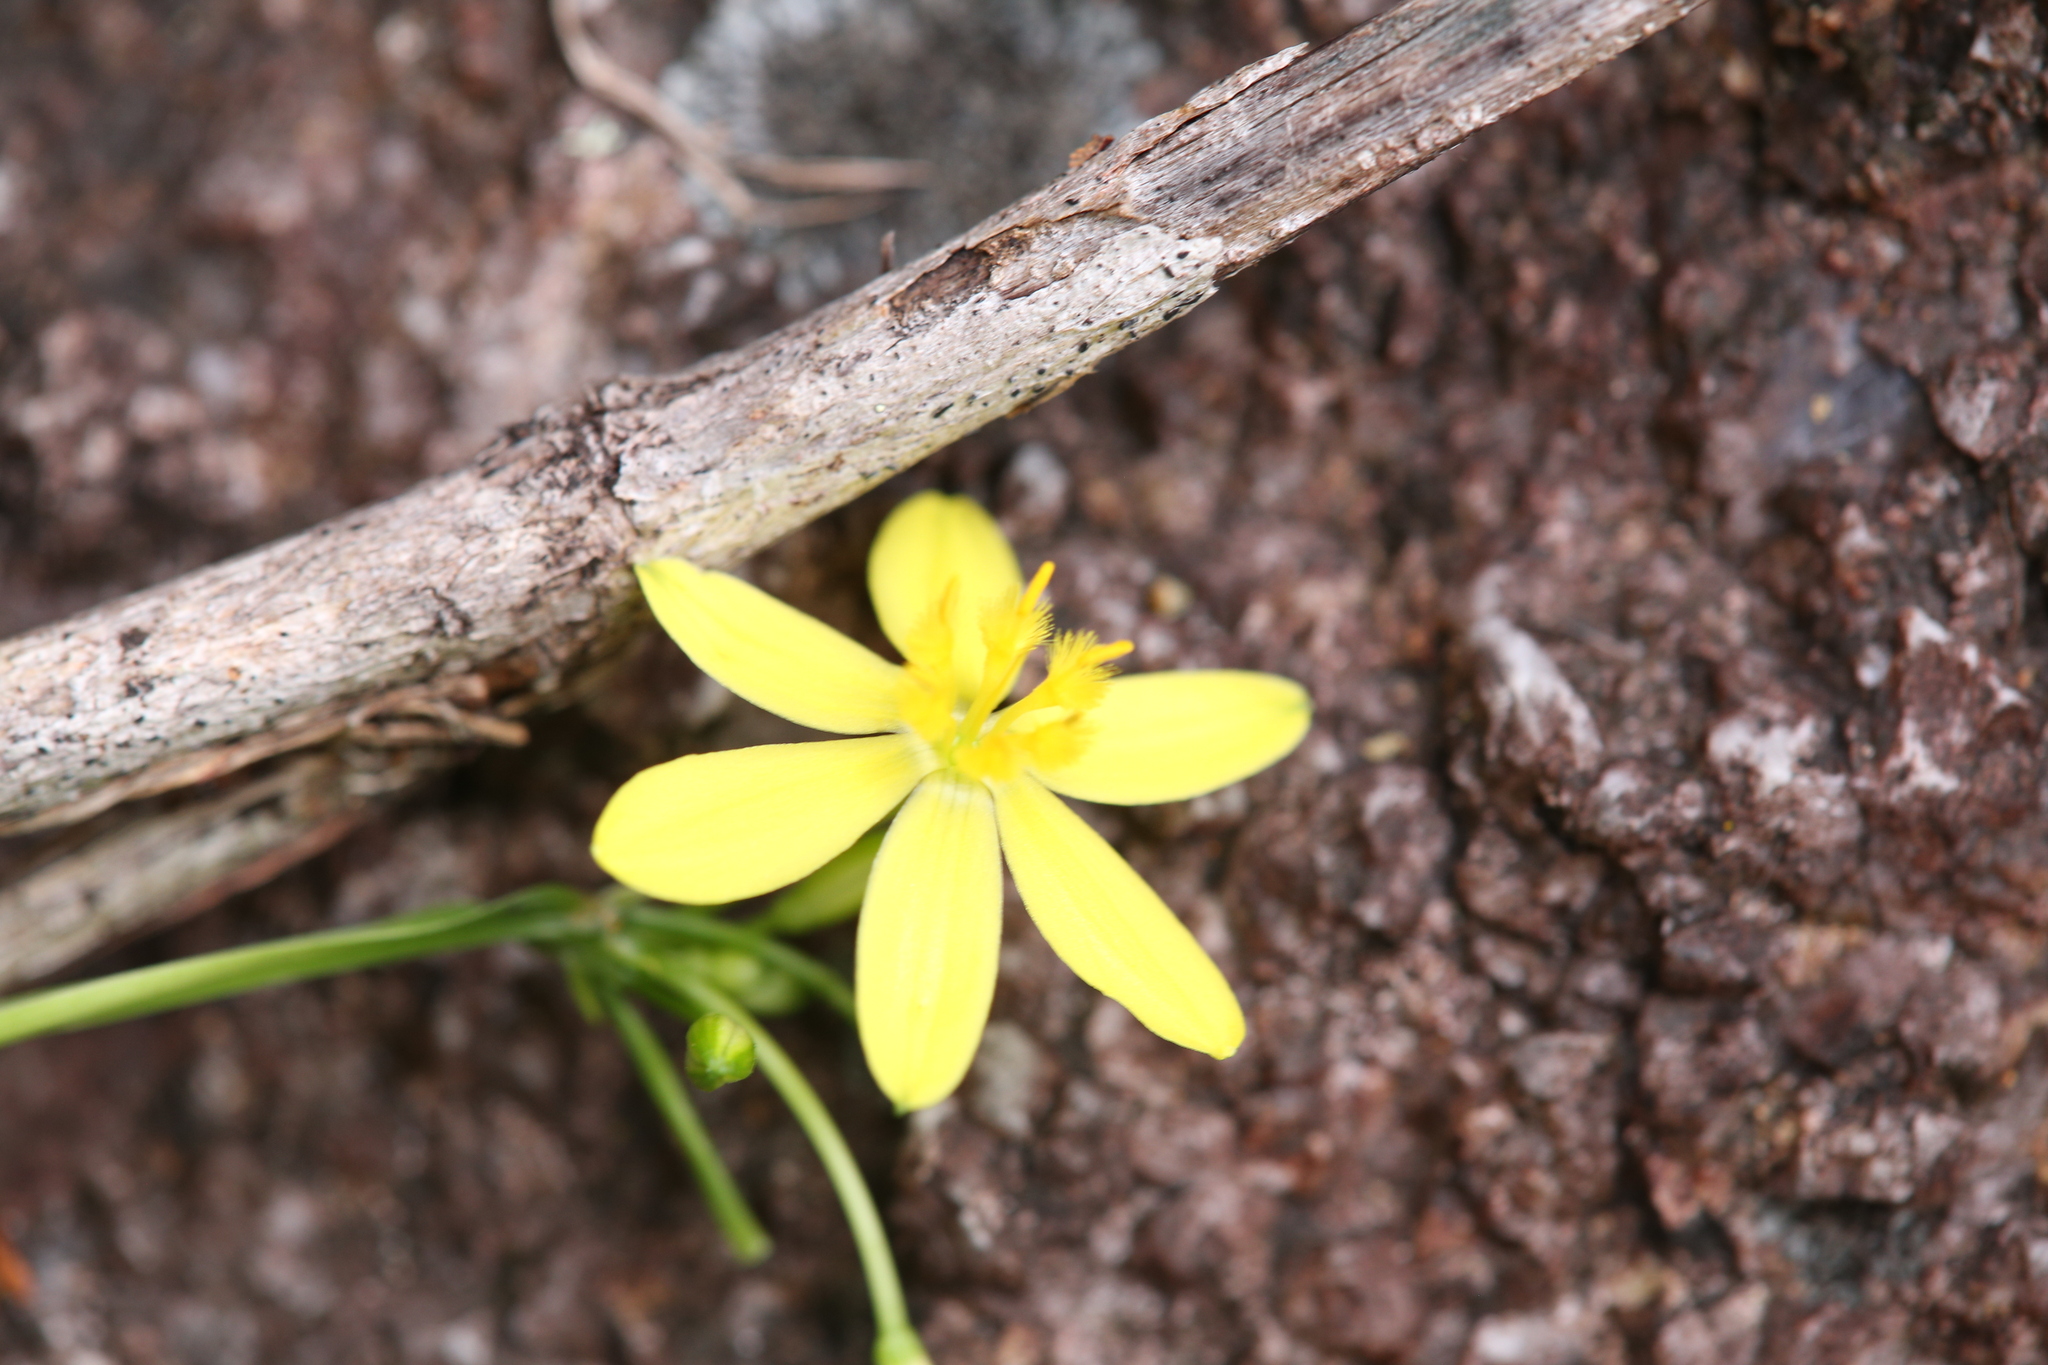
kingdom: Plantae
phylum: Tracheophyta
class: Liliopsida
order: Asparagales
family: Asphodelaceae
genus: Tricoryne
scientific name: Tricoryne anceps
